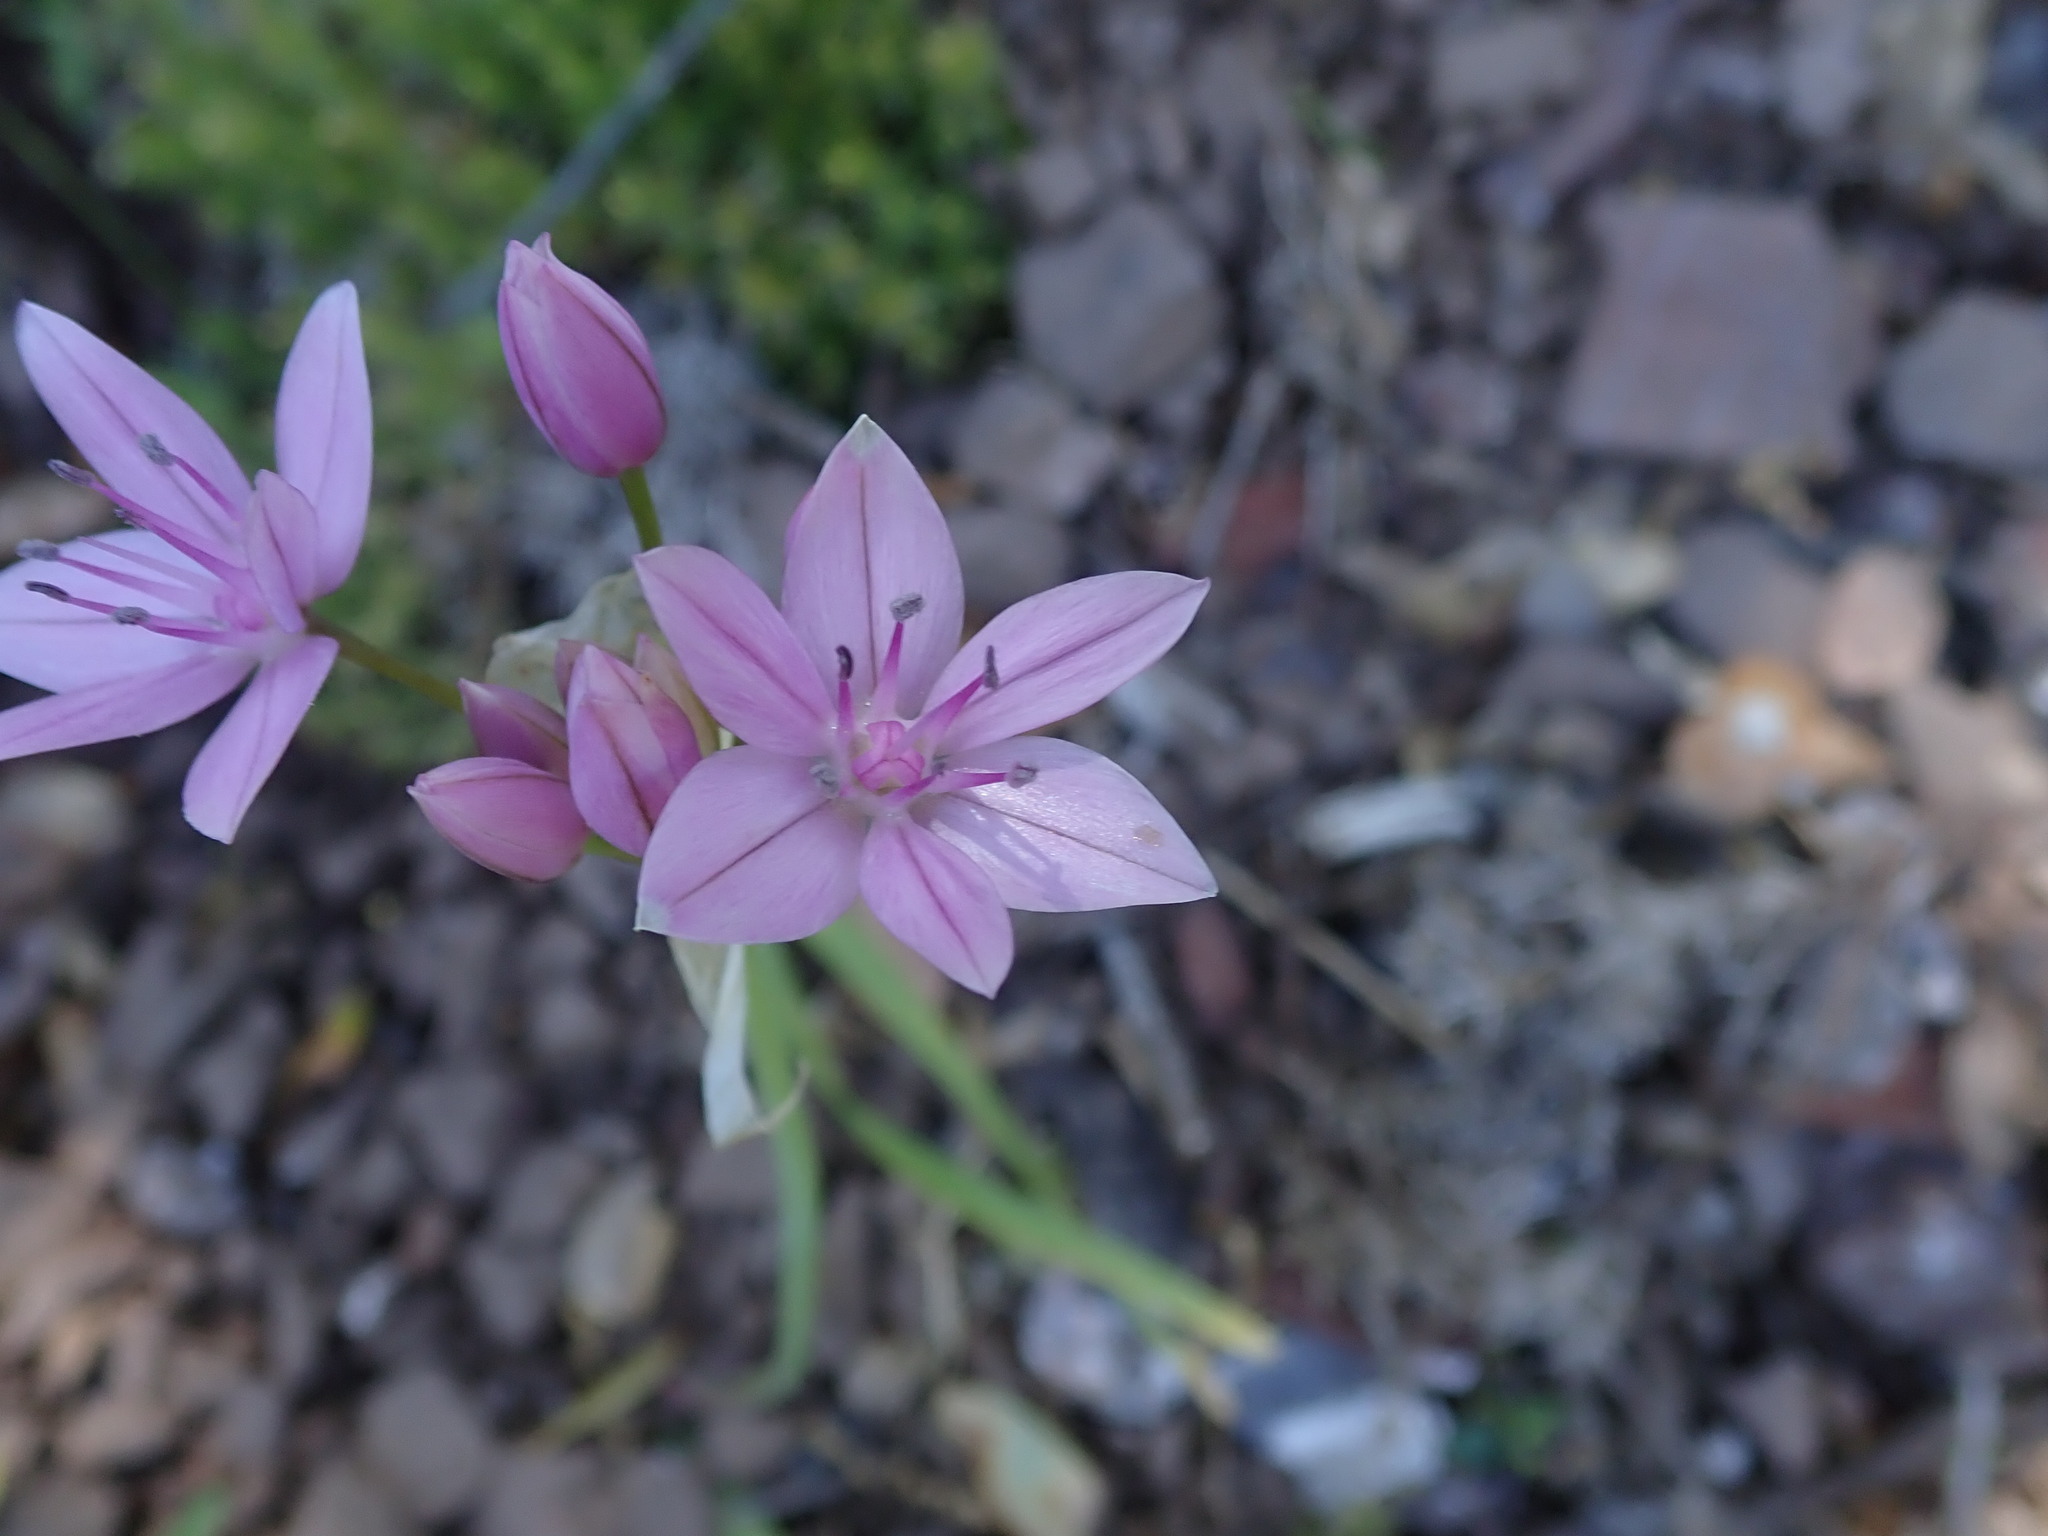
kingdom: Plantae
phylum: Tracheophyta
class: Liliopsida
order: Asparagales
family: Amaryllidaceae
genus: Allium
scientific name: Allium unifolium
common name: American garlic
